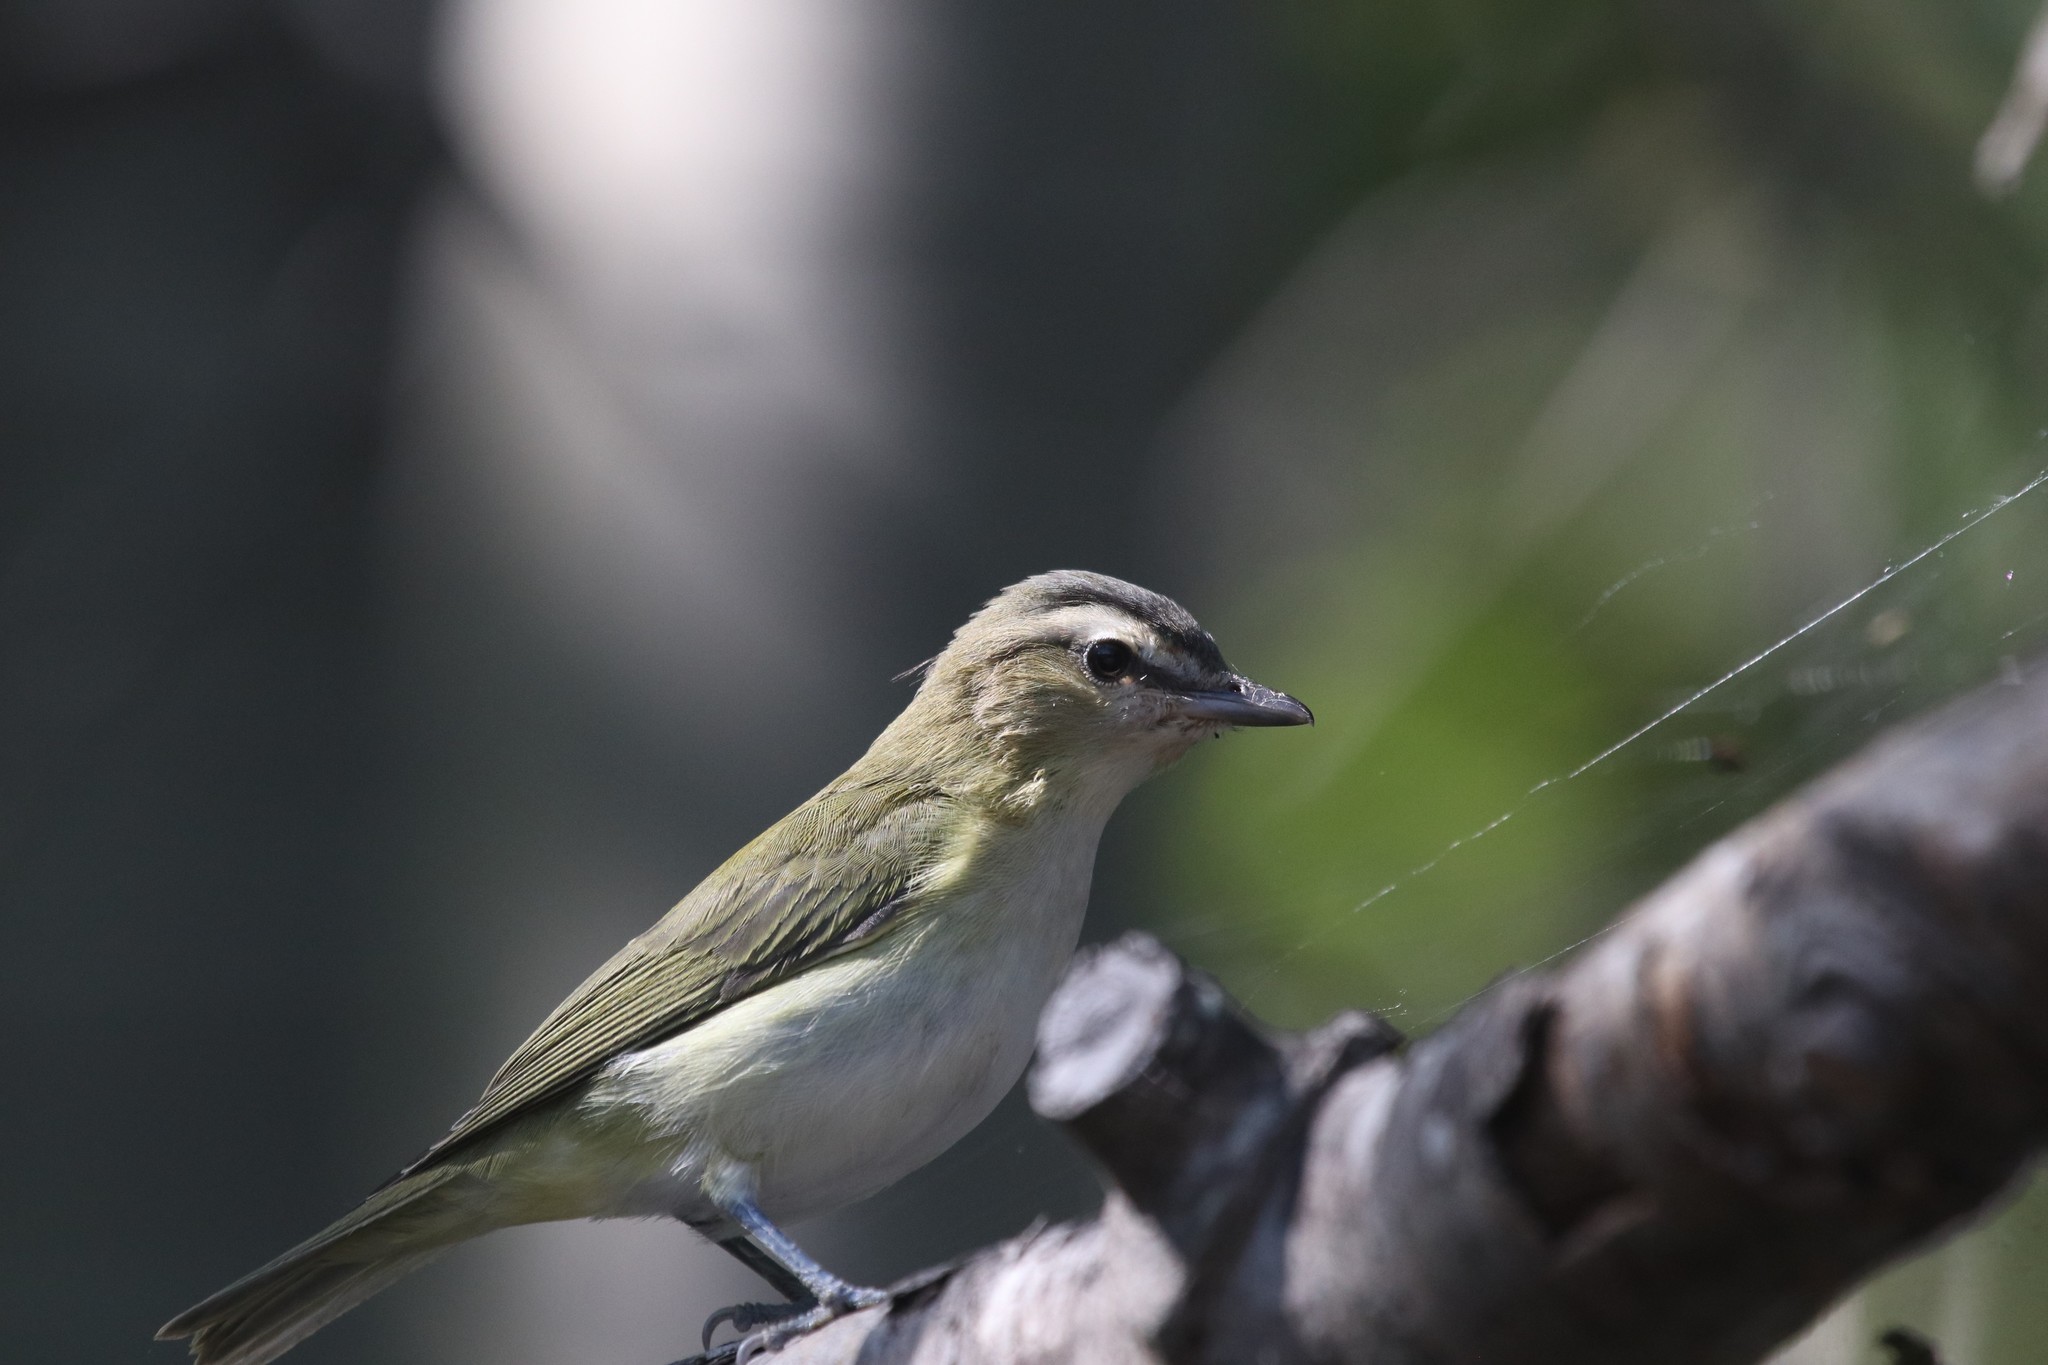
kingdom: Animalia
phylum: Chordata
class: Aves
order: Passeriformes
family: Vireonidae
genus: Vireo
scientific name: Vireo olivaceus
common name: Red-eyed vireo
